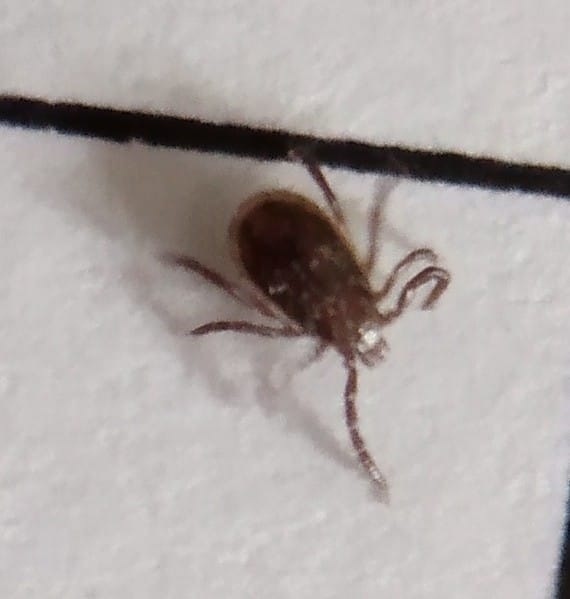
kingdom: Animalia
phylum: Arthropoda
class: Arachnida
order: Ixodida
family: Ixodidae
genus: Ixodes
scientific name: Ixodes scapularis
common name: Black legged tick
